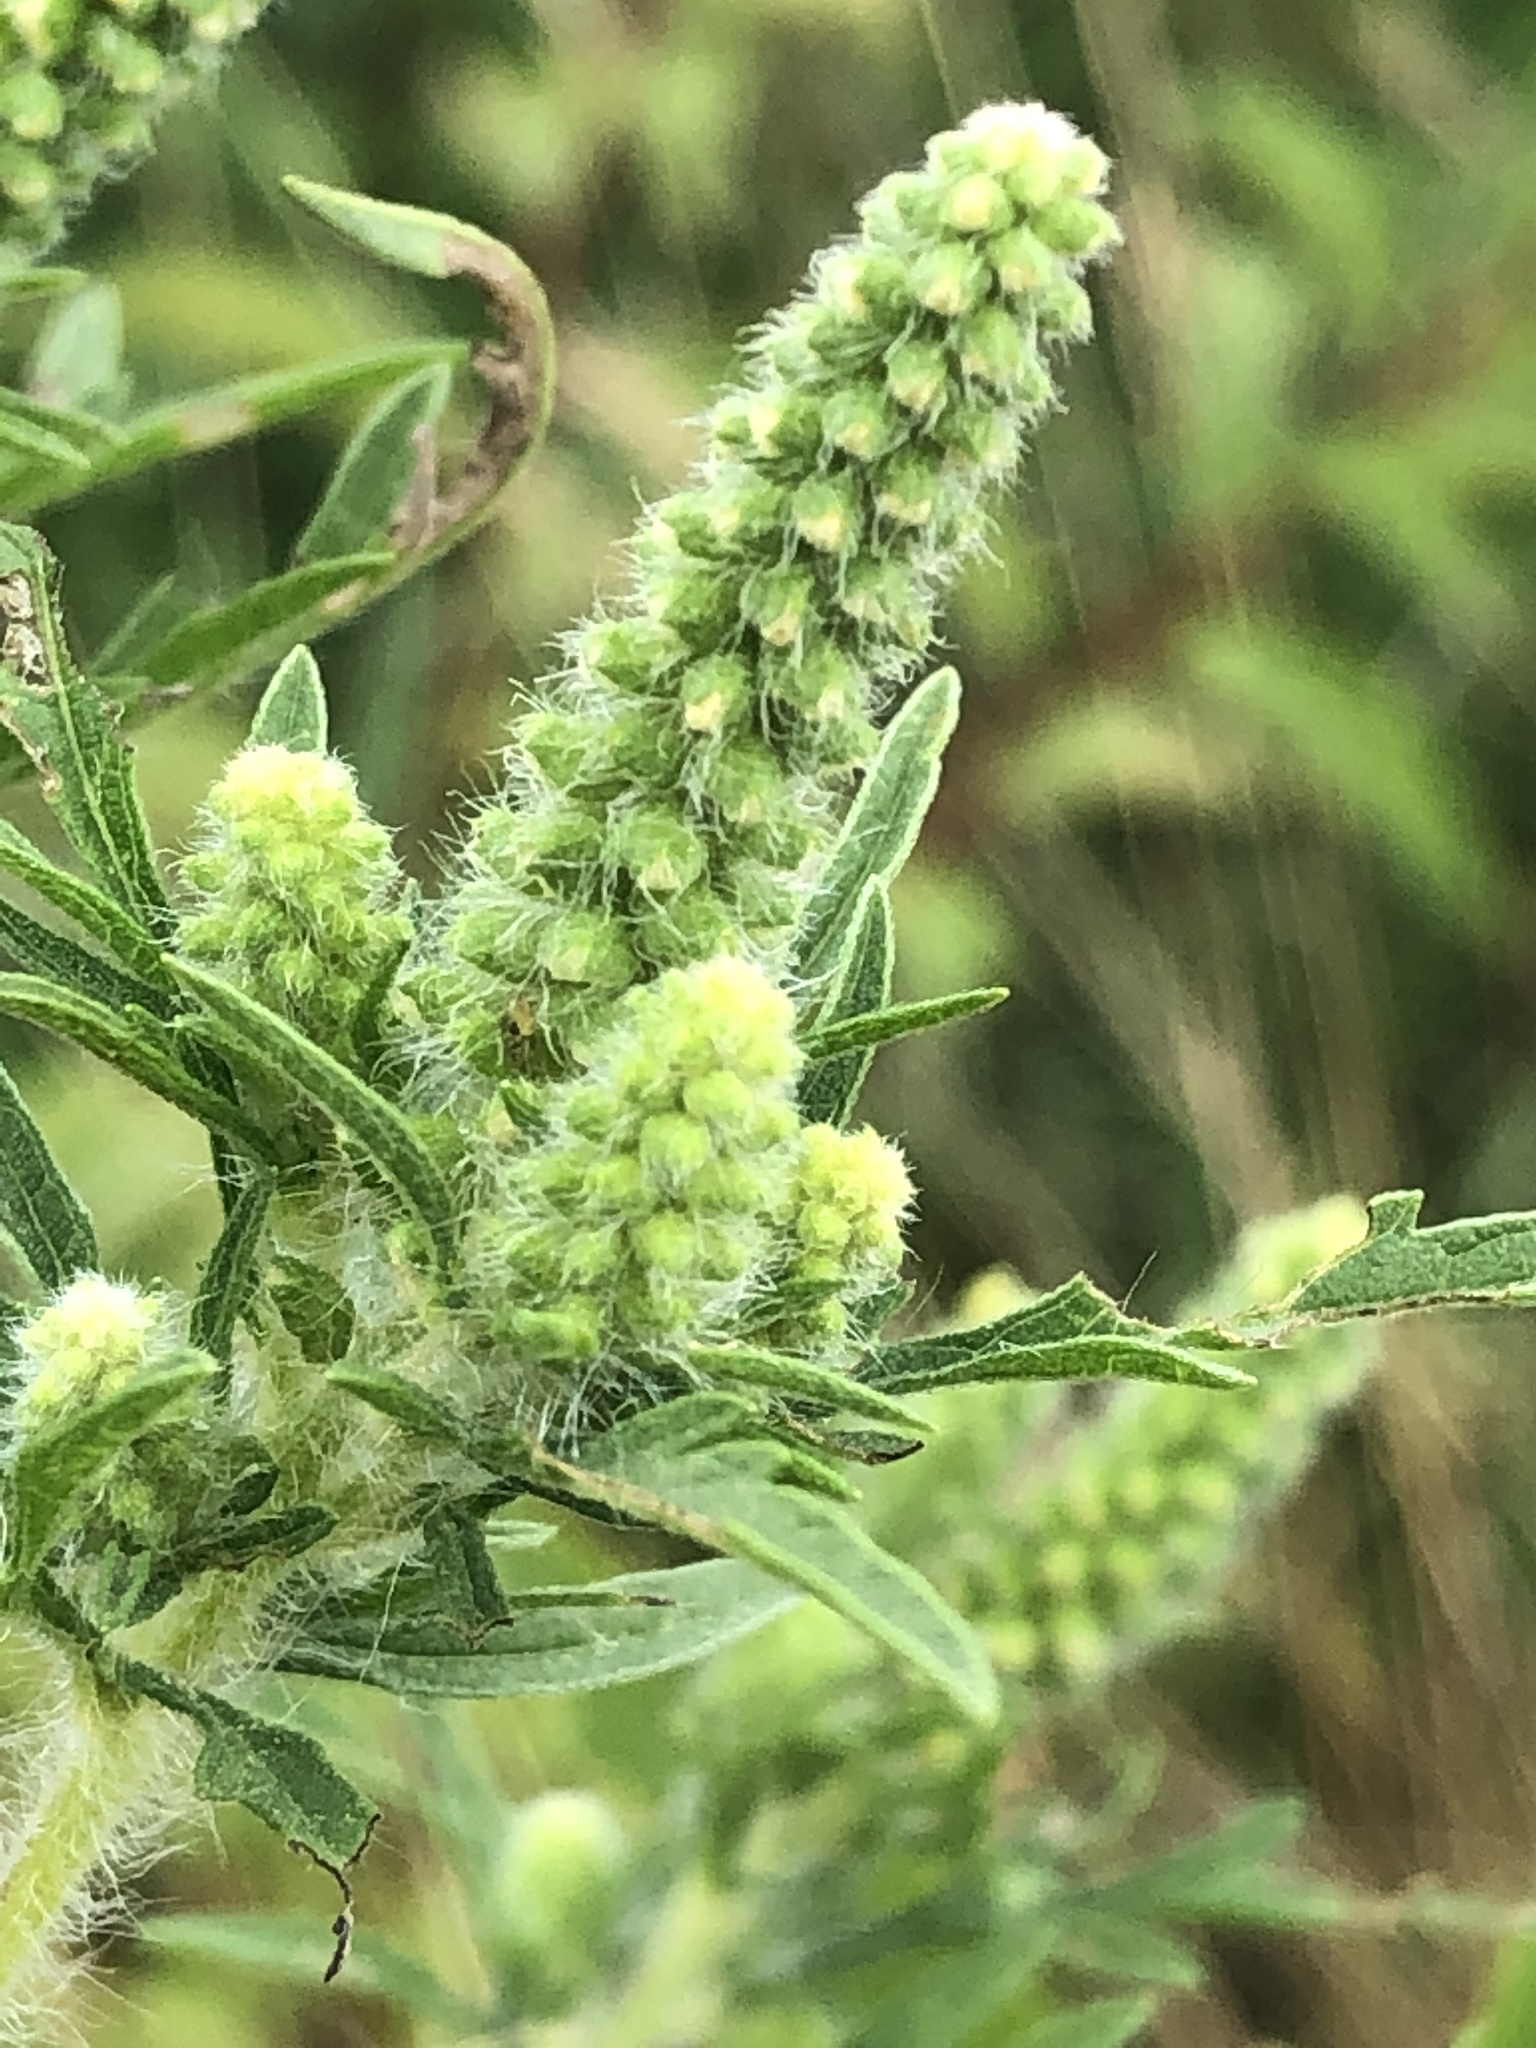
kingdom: Plantae
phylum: Tracheophyta
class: Magnoliopsida
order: Asterales
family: Asteraceae
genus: Ambrosia
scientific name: Ambrosia artemisiifolia
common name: Annual ragweed
